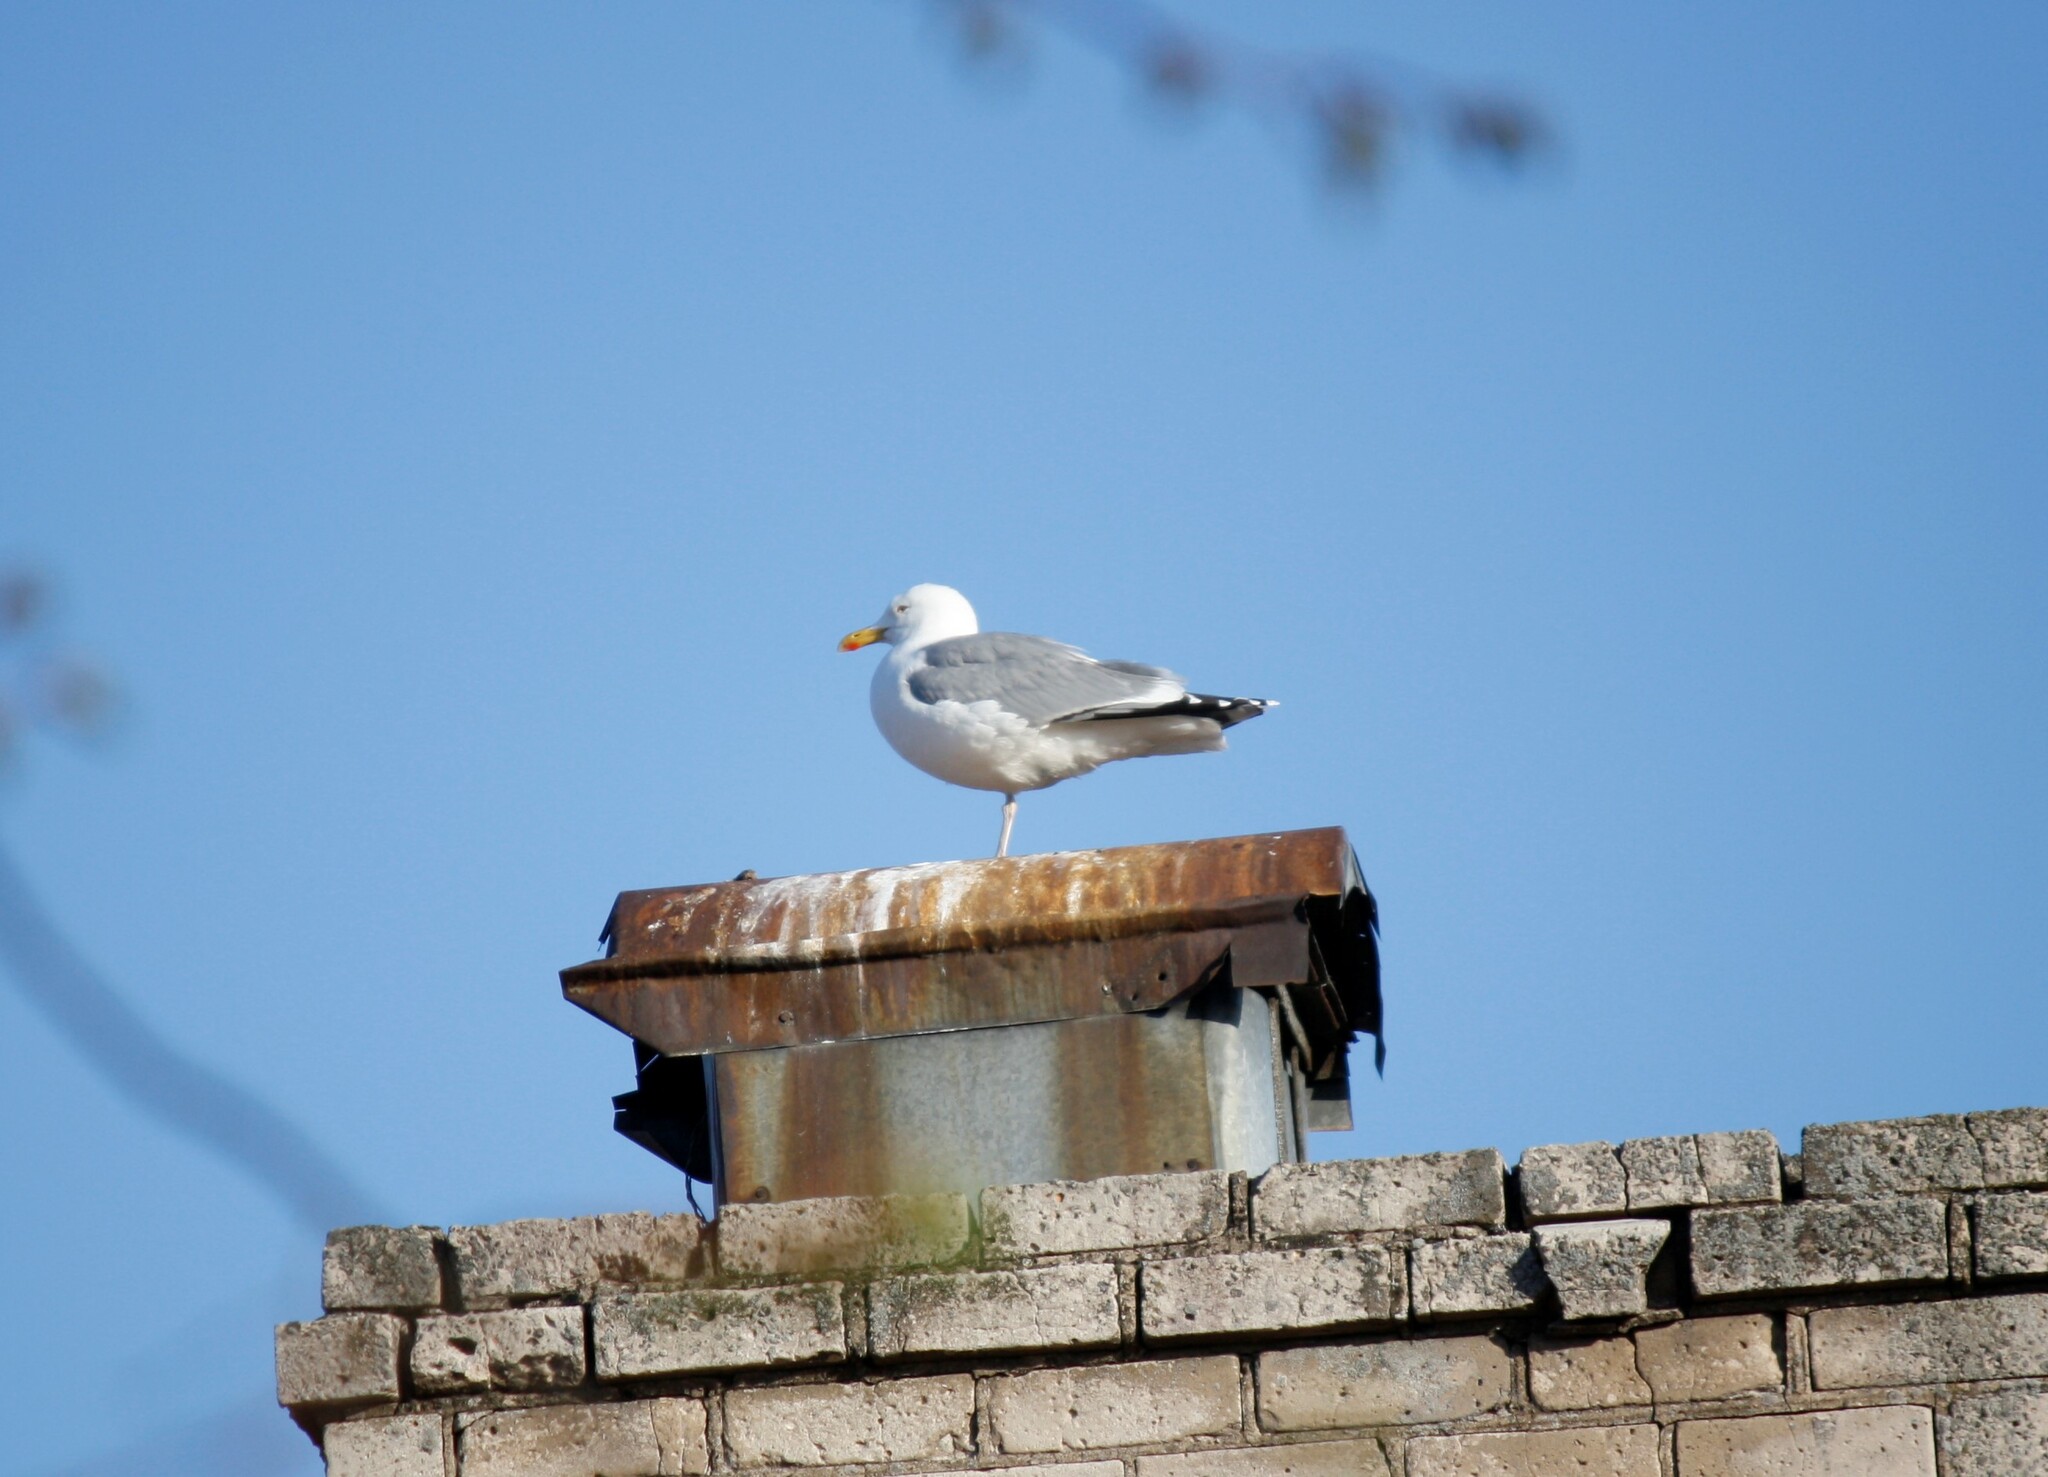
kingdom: Animalia
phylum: Chordata
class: Aves
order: Charadriiformes
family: Laridae
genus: Larus
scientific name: Larus argentatus
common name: Herring gull
